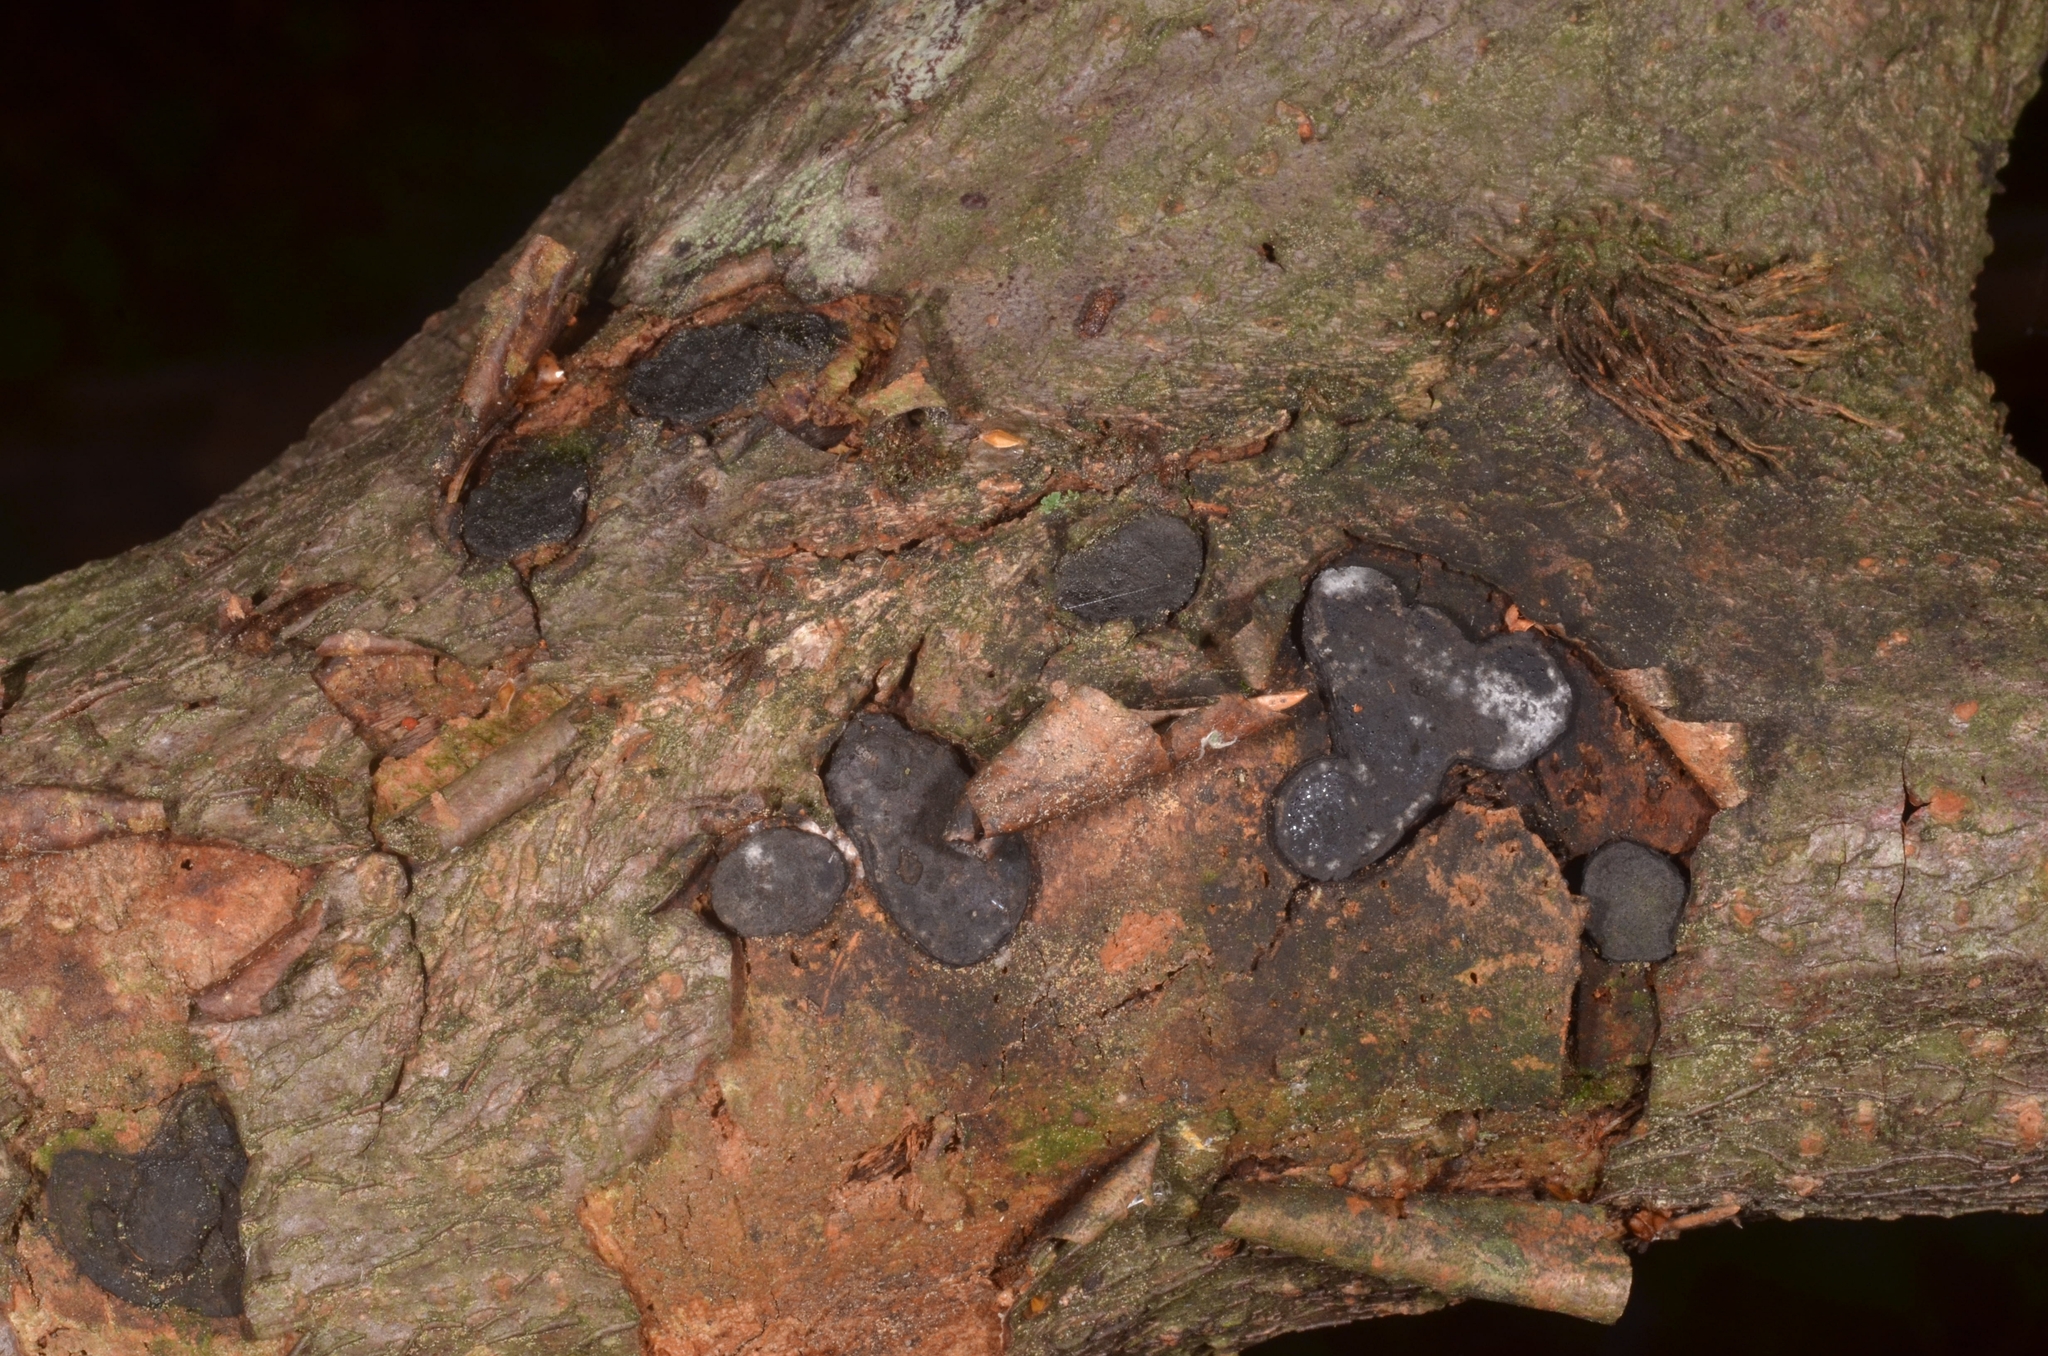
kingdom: Fungi
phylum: Ascomycota
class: Sordariomycetes
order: Xylariales
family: Graphostromataceae
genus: Biscogniauxia
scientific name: Biscogniauxia granmoi
